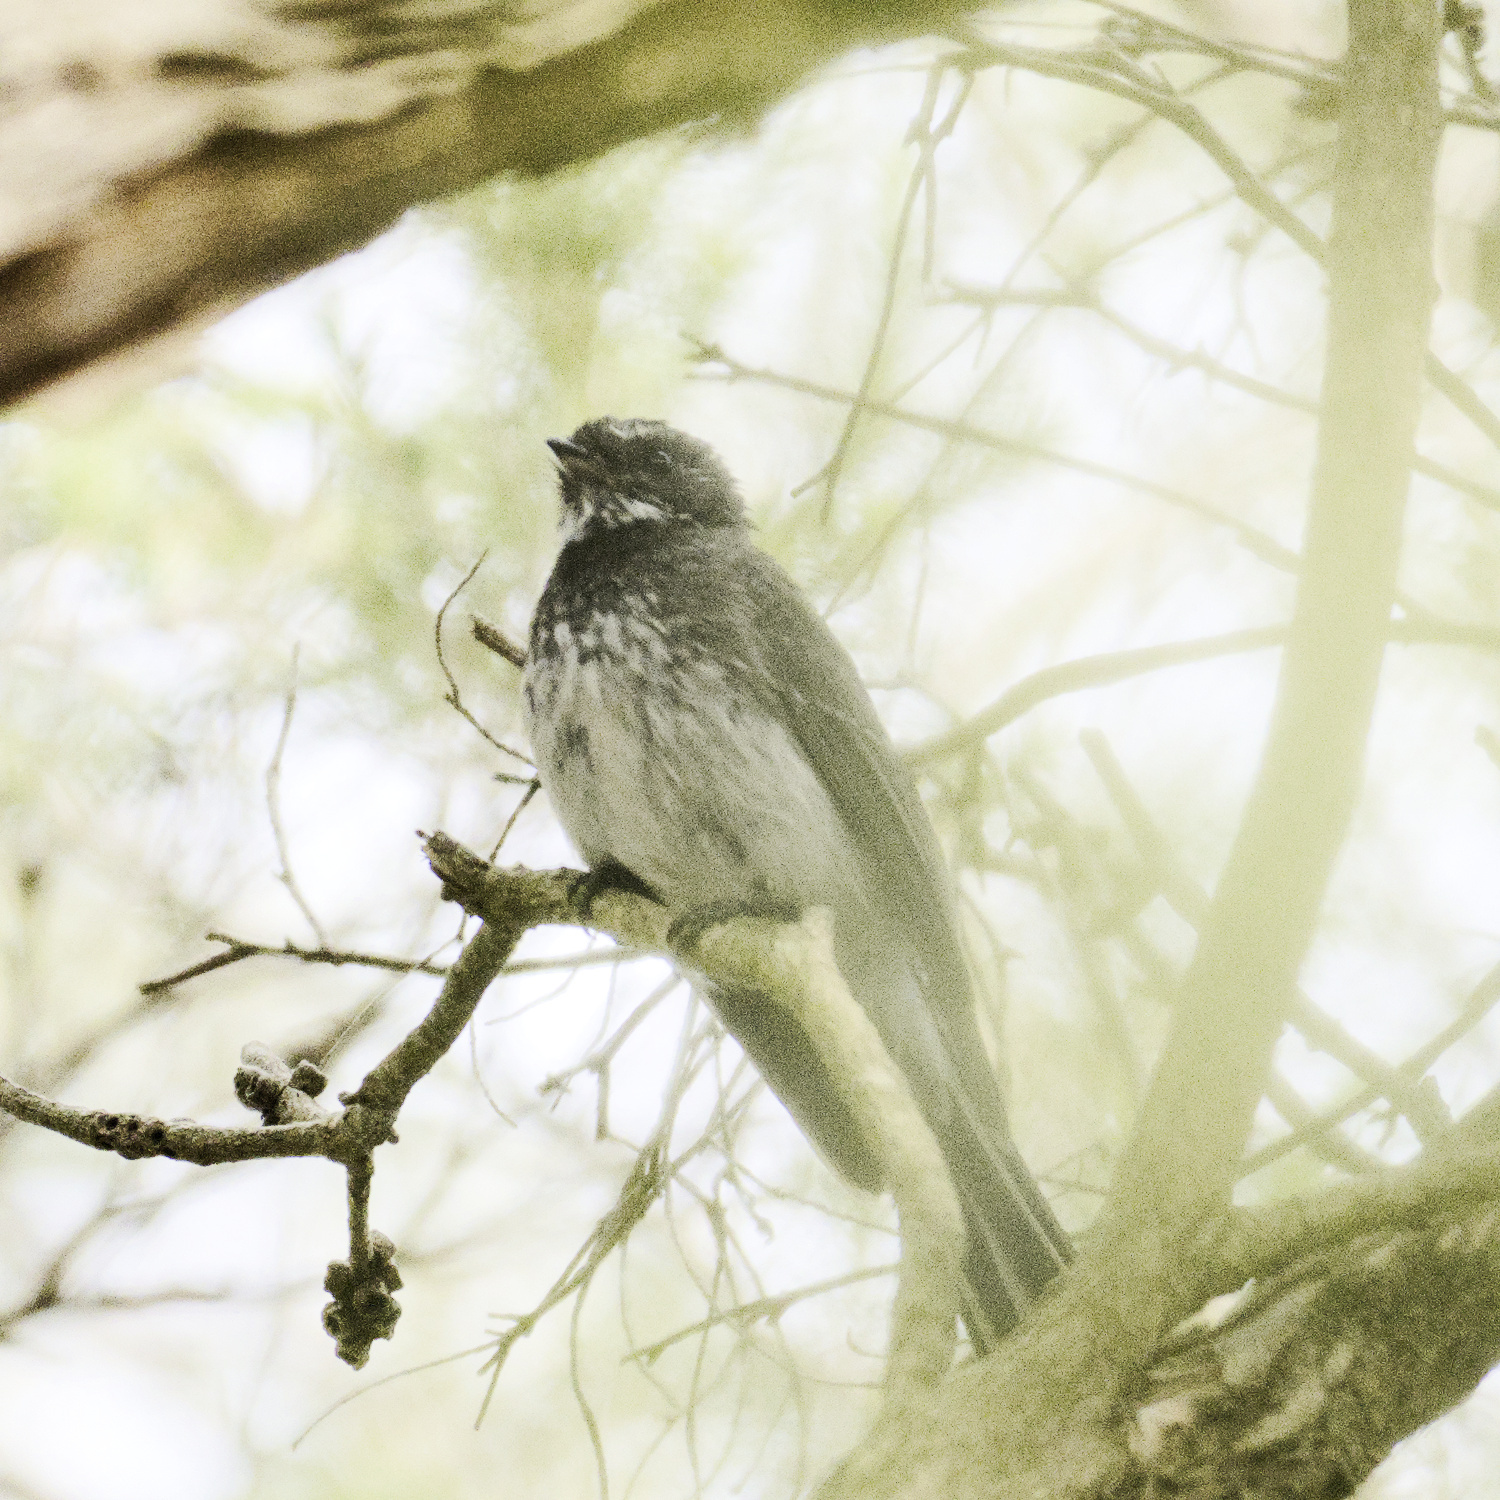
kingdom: Animalia
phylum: Chordata
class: Aves
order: Passeriformes
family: Rhipiduridae
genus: Rhipidura
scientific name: Rhipidura albiscapa
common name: Grey fantail
